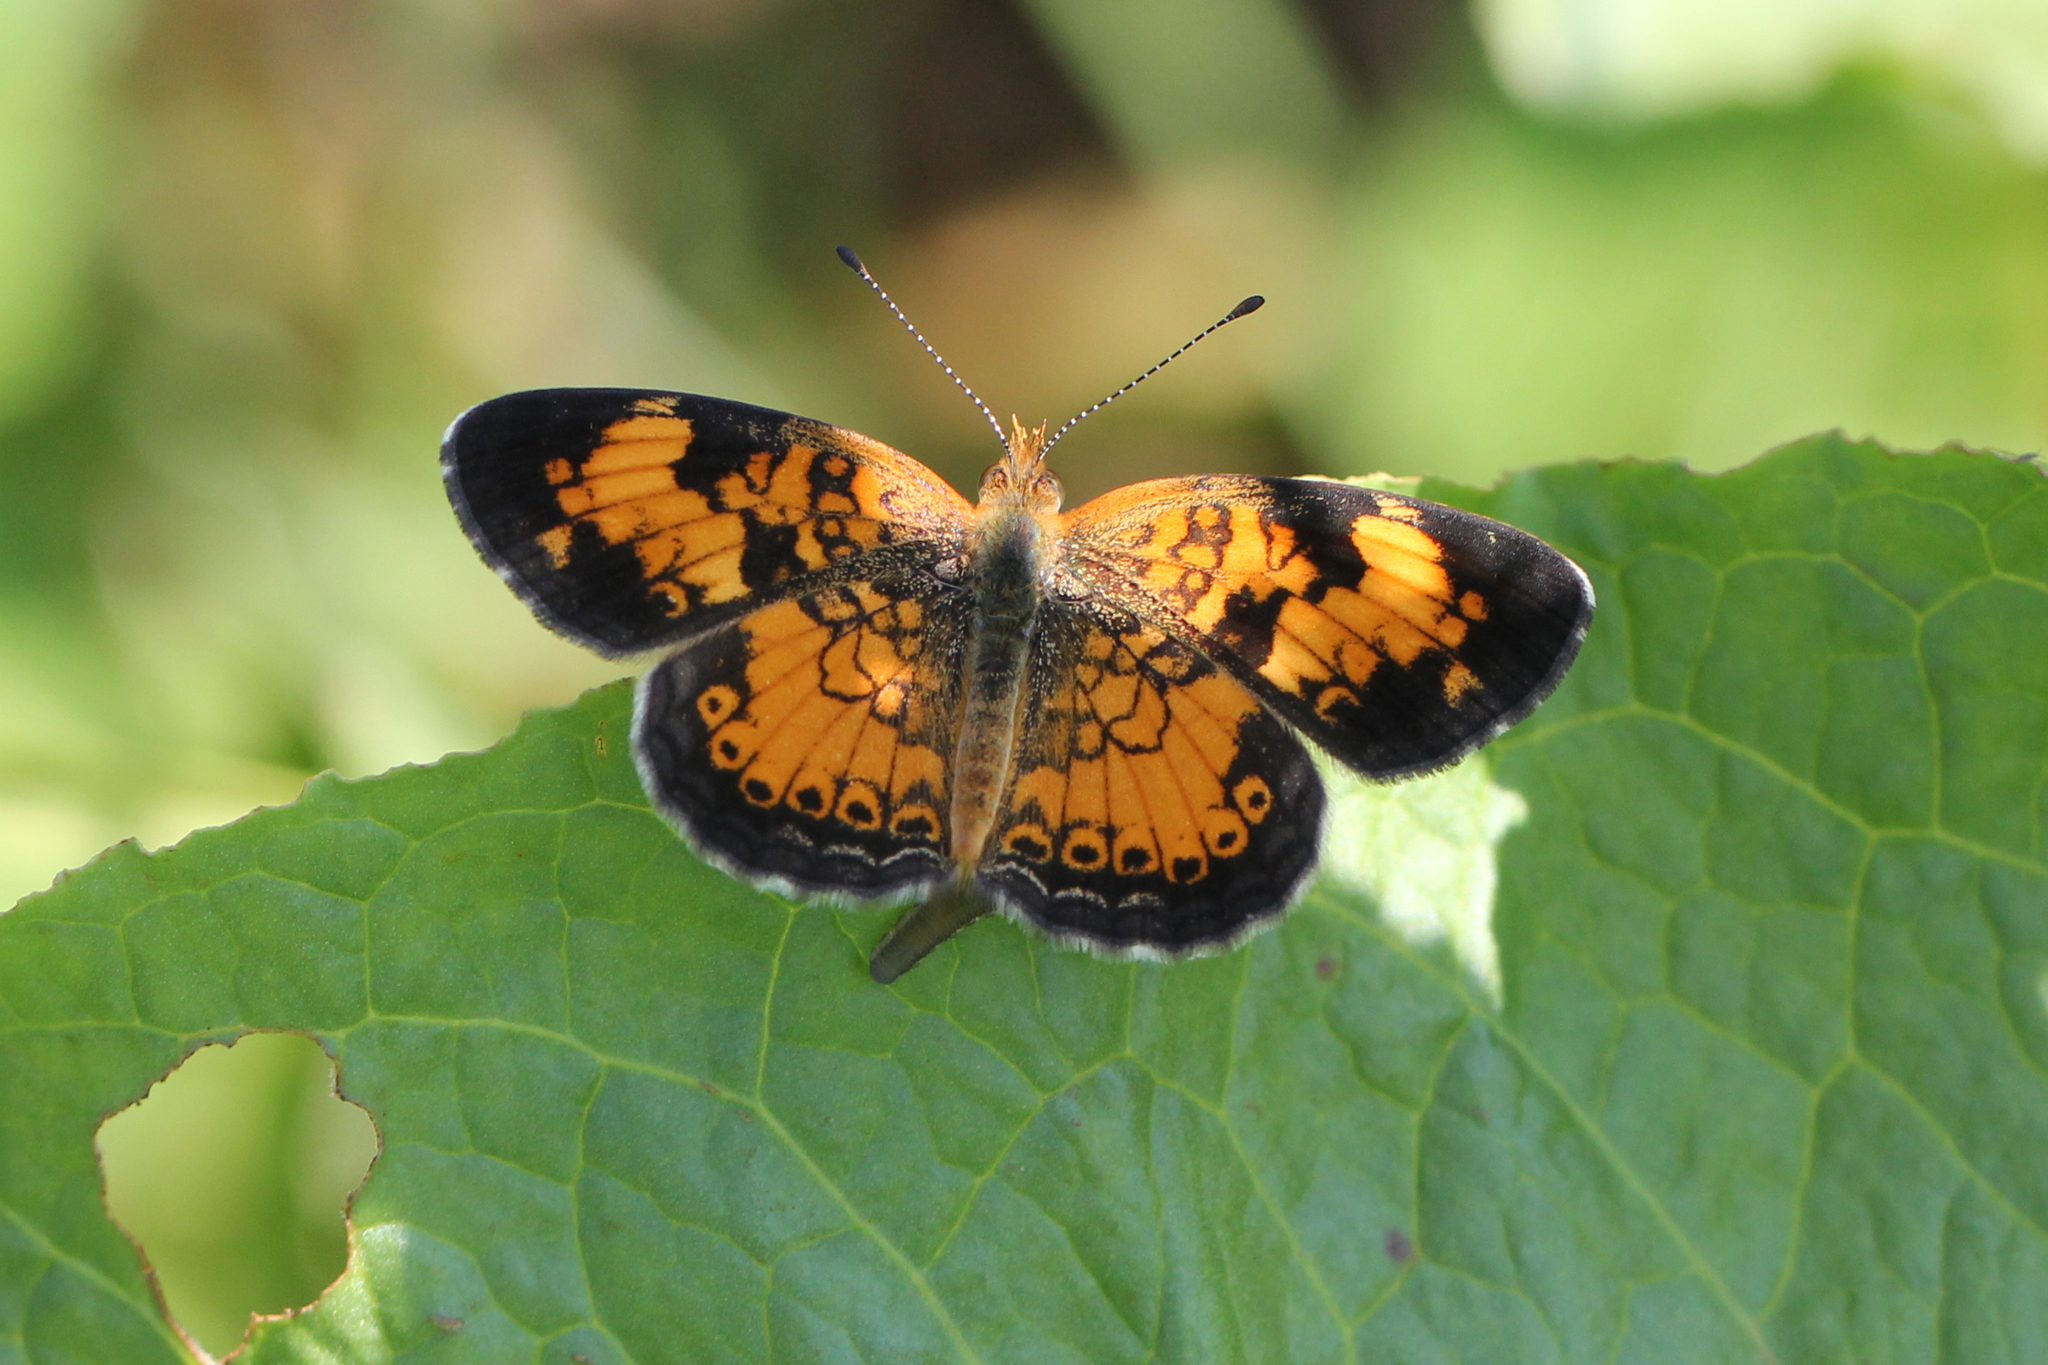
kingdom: Animalia
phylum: Arthropoda
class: Insecta
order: Lepidoptera
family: Nymphalidae
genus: Phyciodes
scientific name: Phyciodes tharos
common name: Pearl crescent
